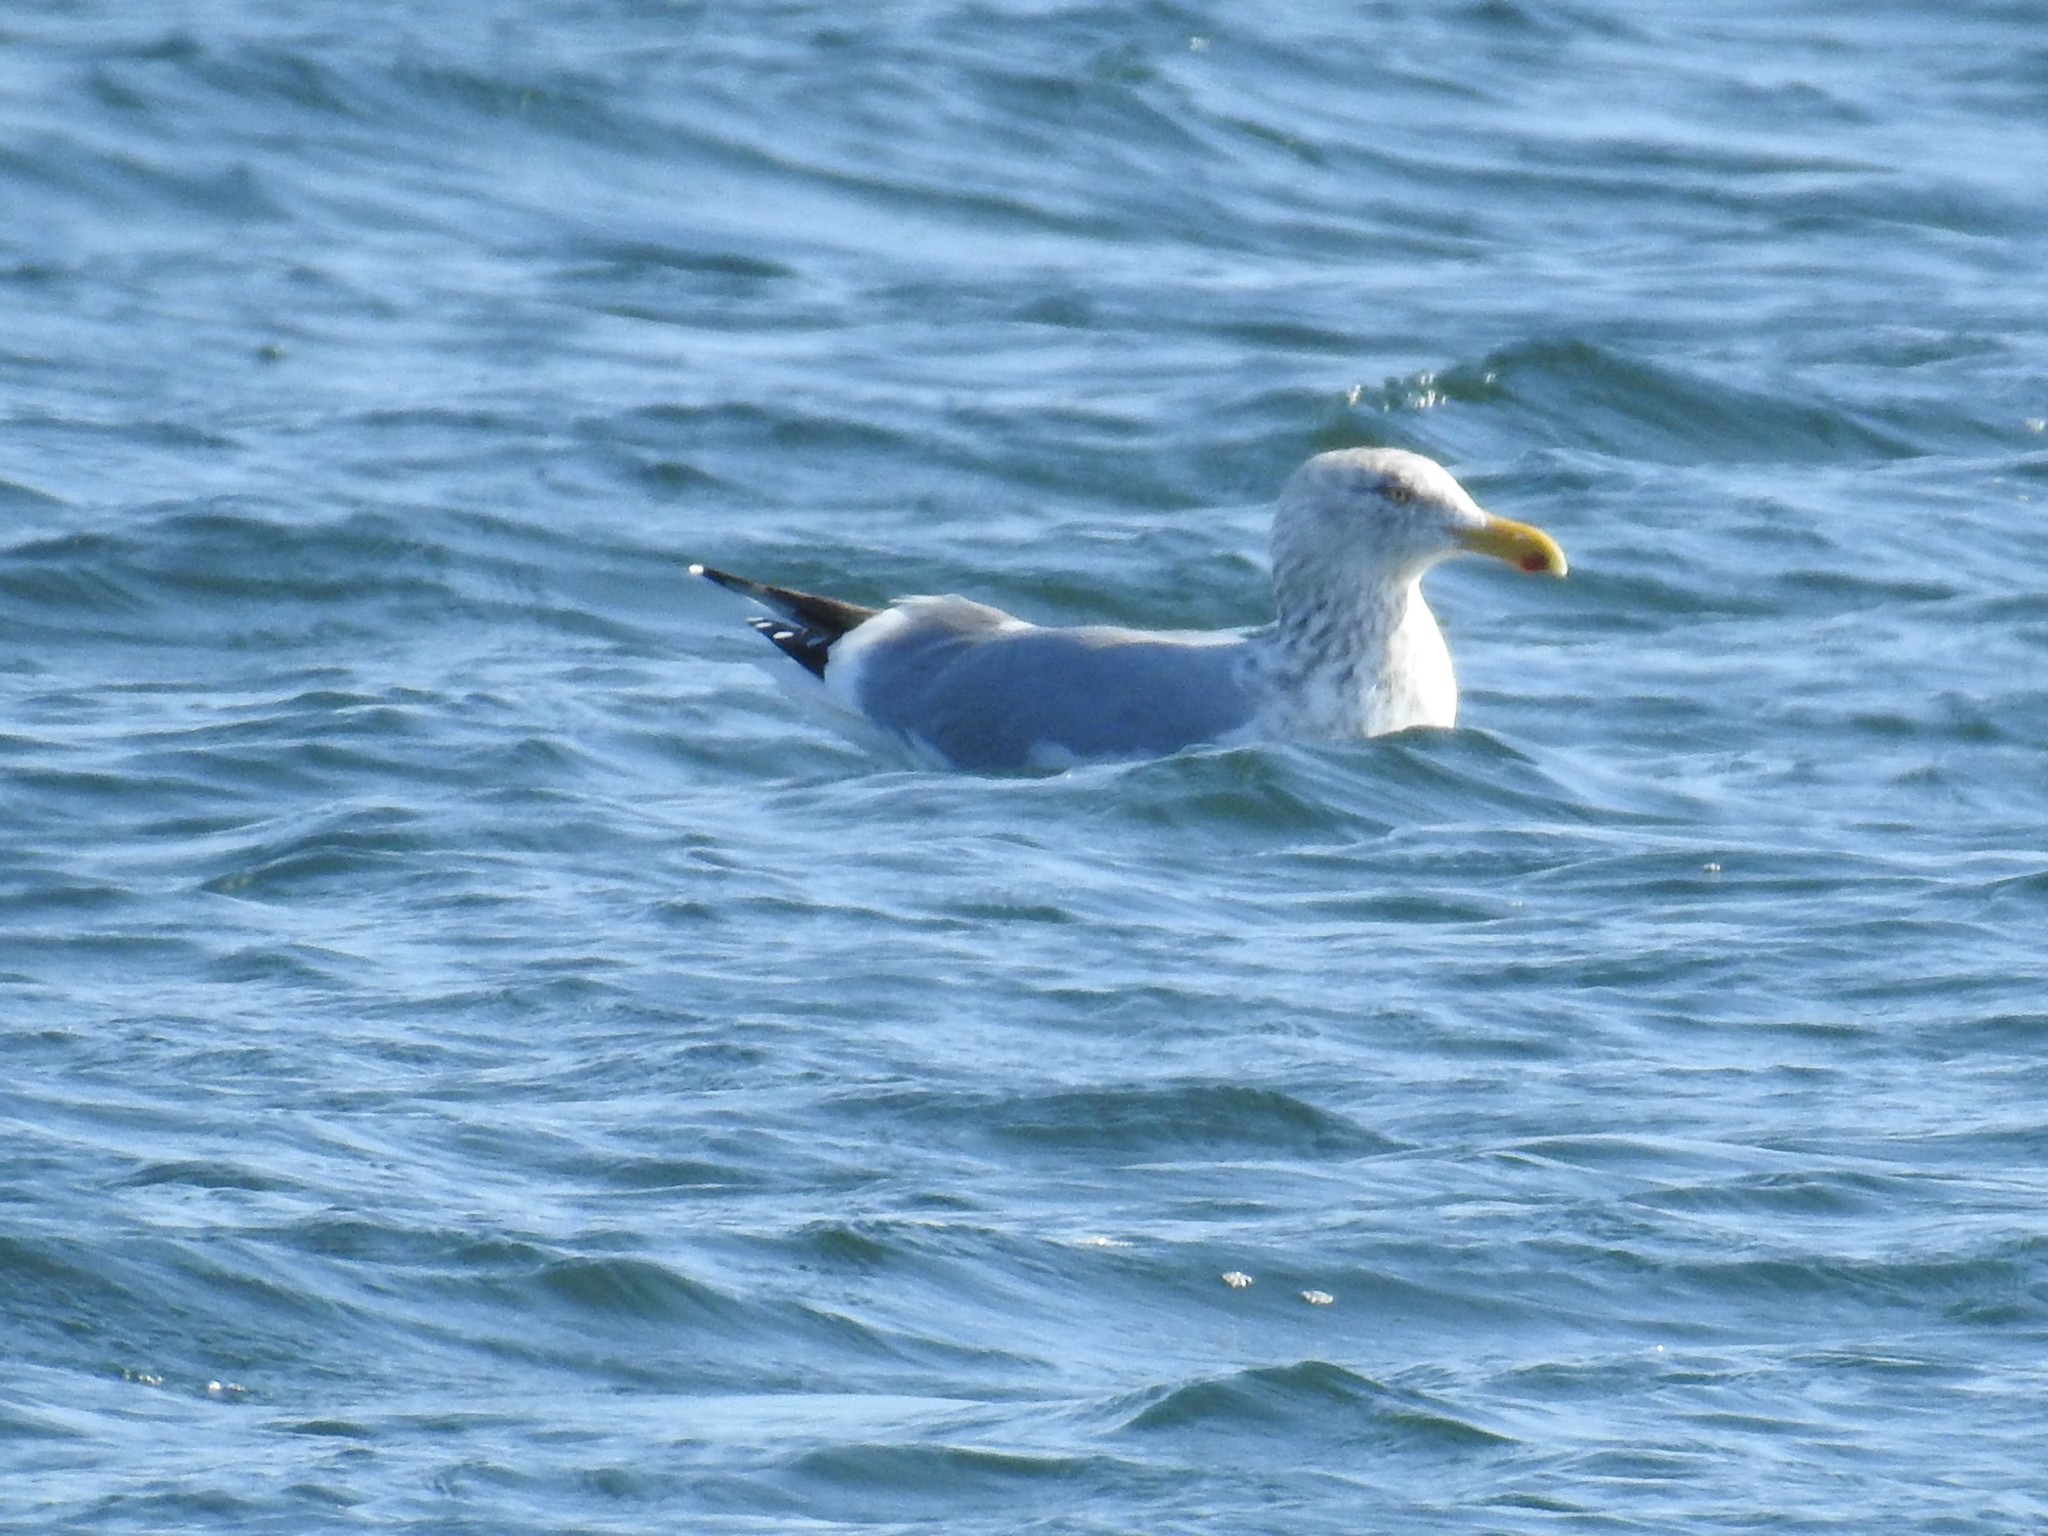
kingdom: Animalia
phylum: Chordata
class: Aves
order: Charadriiformes
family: Laridae
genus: Larus
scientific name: Larus argentatus
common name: Herring gull
